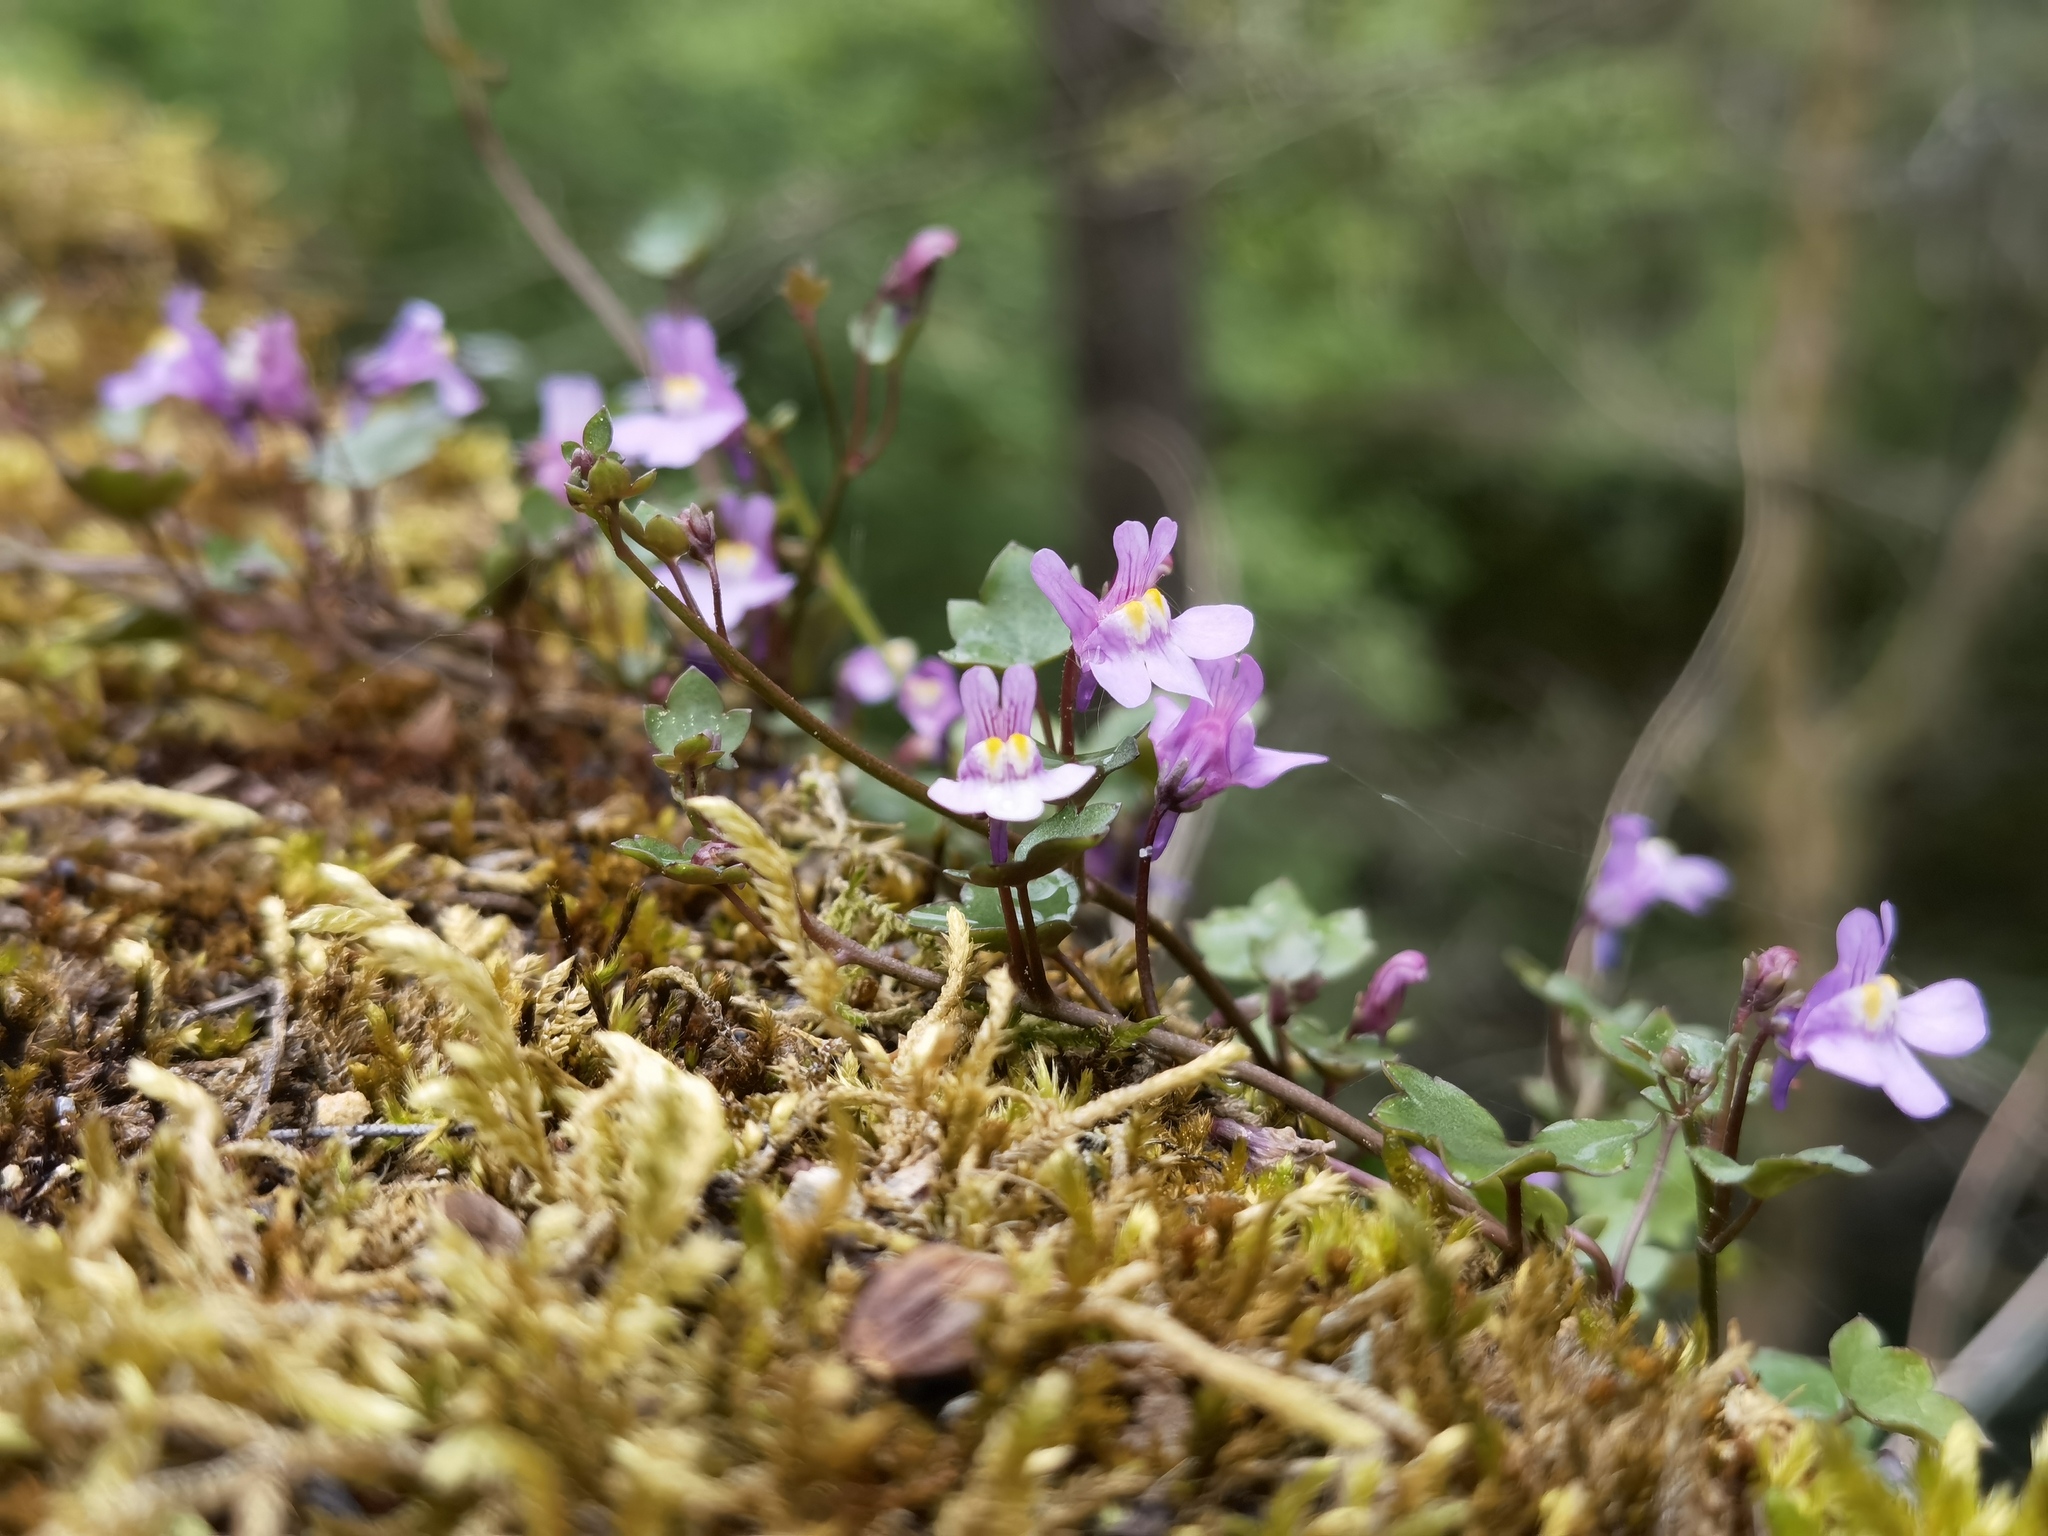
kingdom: Plantae
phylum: Tracheophyta
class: Magnoliopsida
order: Lamiales
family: Plantaginaceae
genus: Cymbalaria
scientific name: Cymbalaria muralis
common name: Ivy-leaved toadflax
